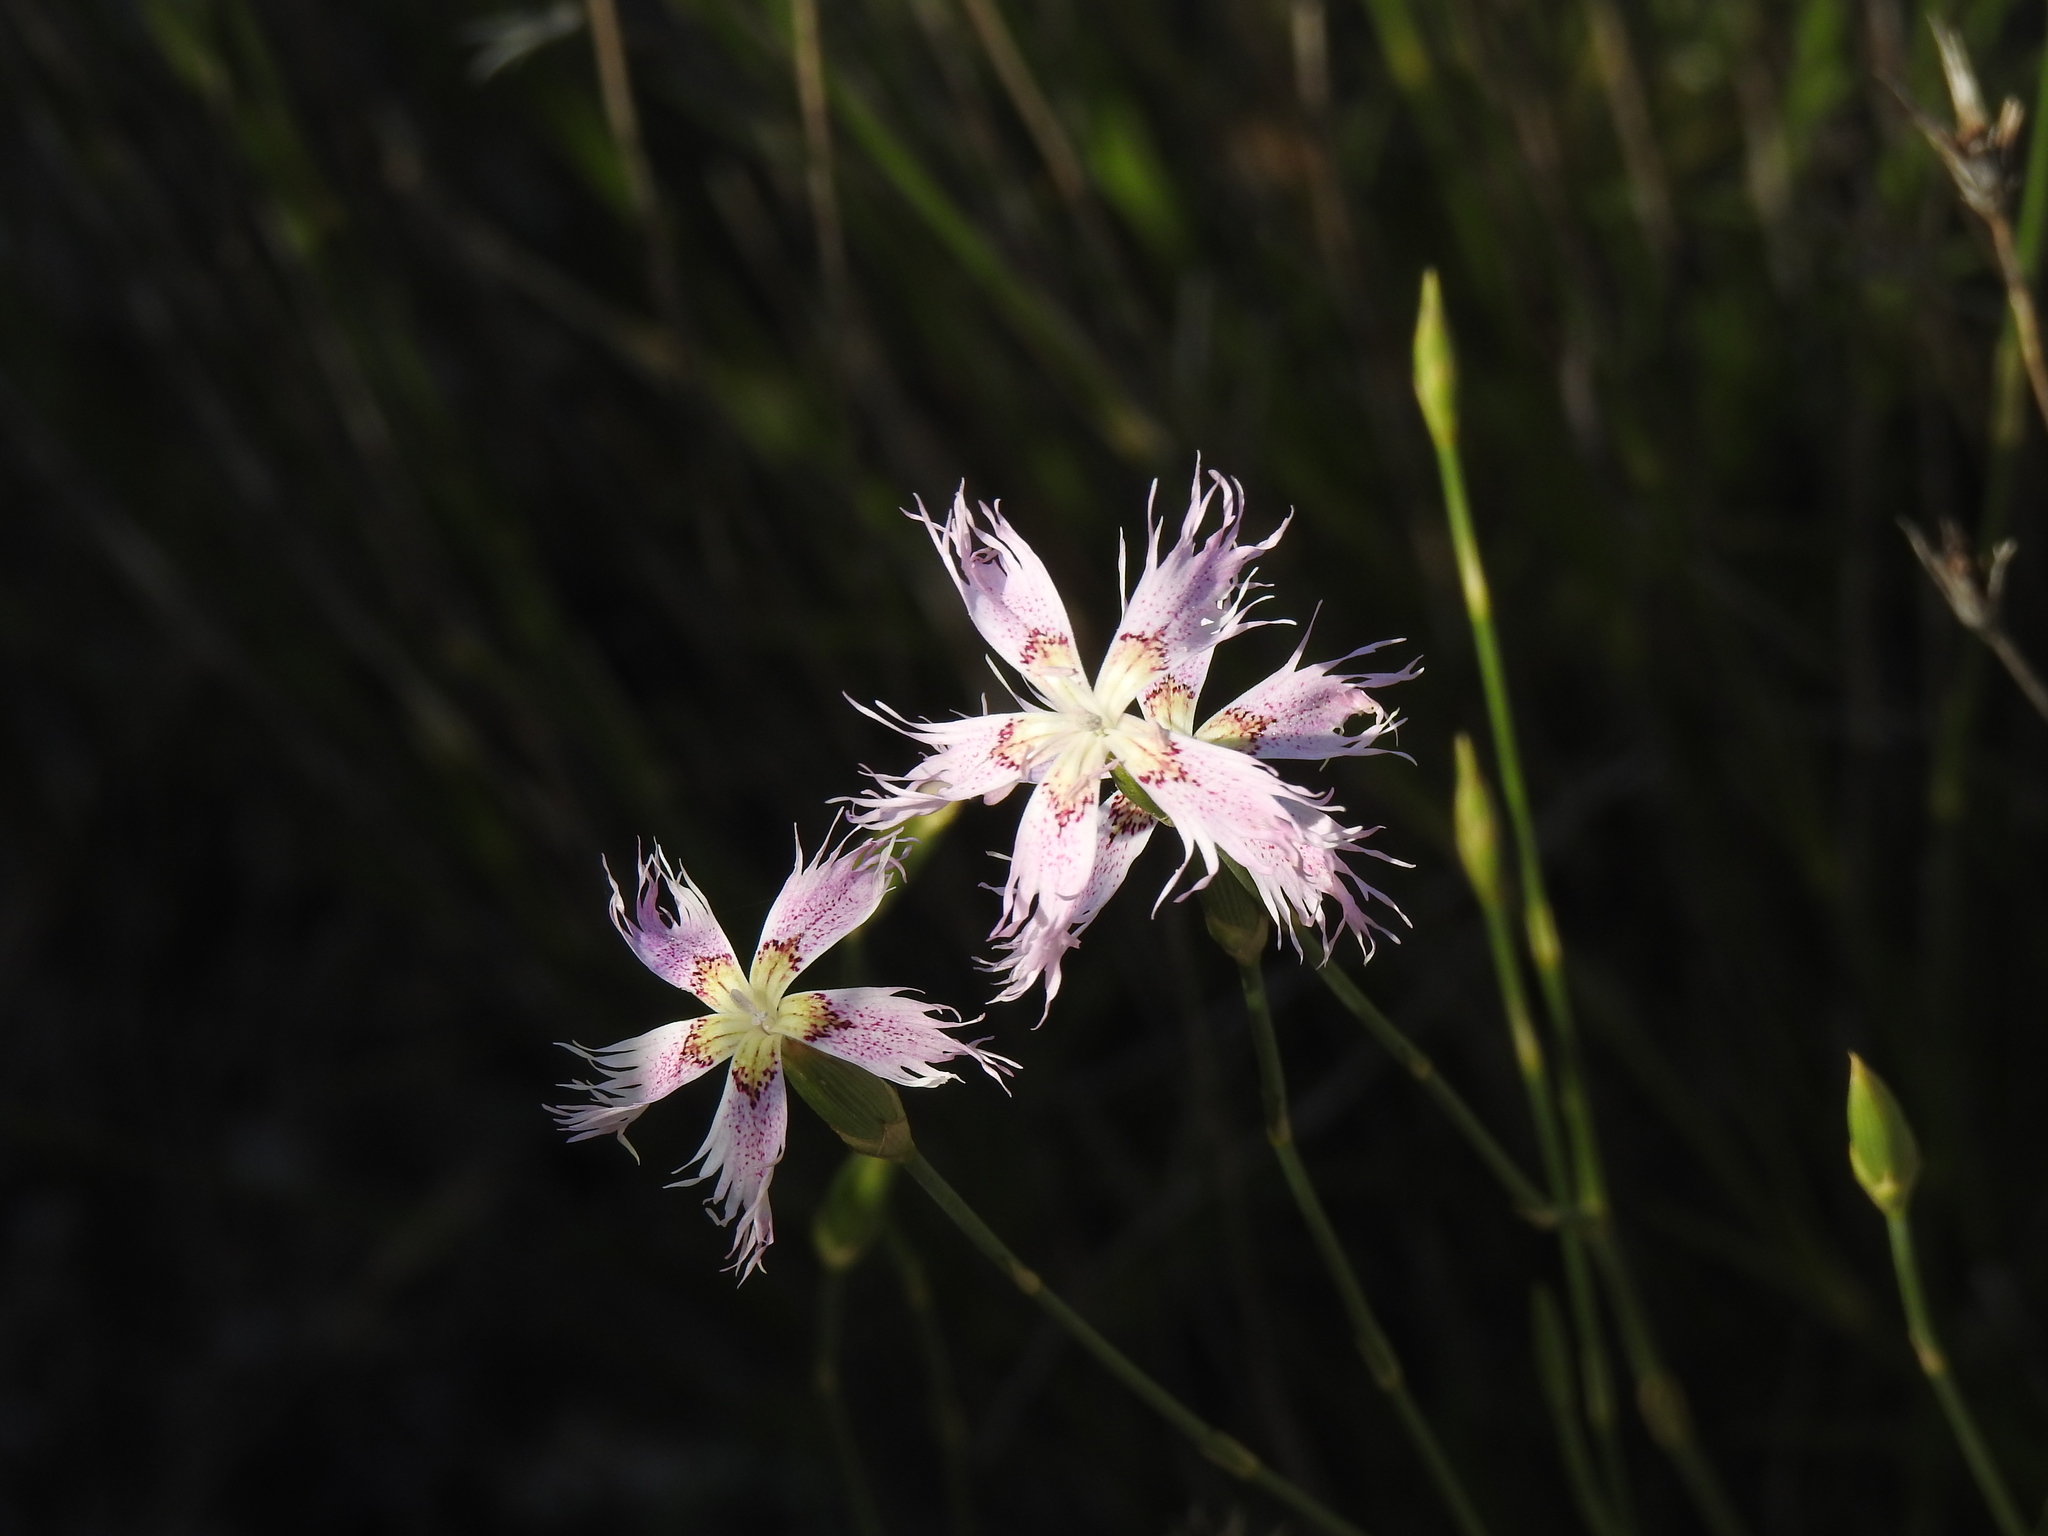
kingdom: Plantae
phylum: Tracheophyta
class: Magnoliopsida
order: Caryophyllales
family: Caryophyllaceae
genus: Dianthus
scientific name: Dianthus broteri
